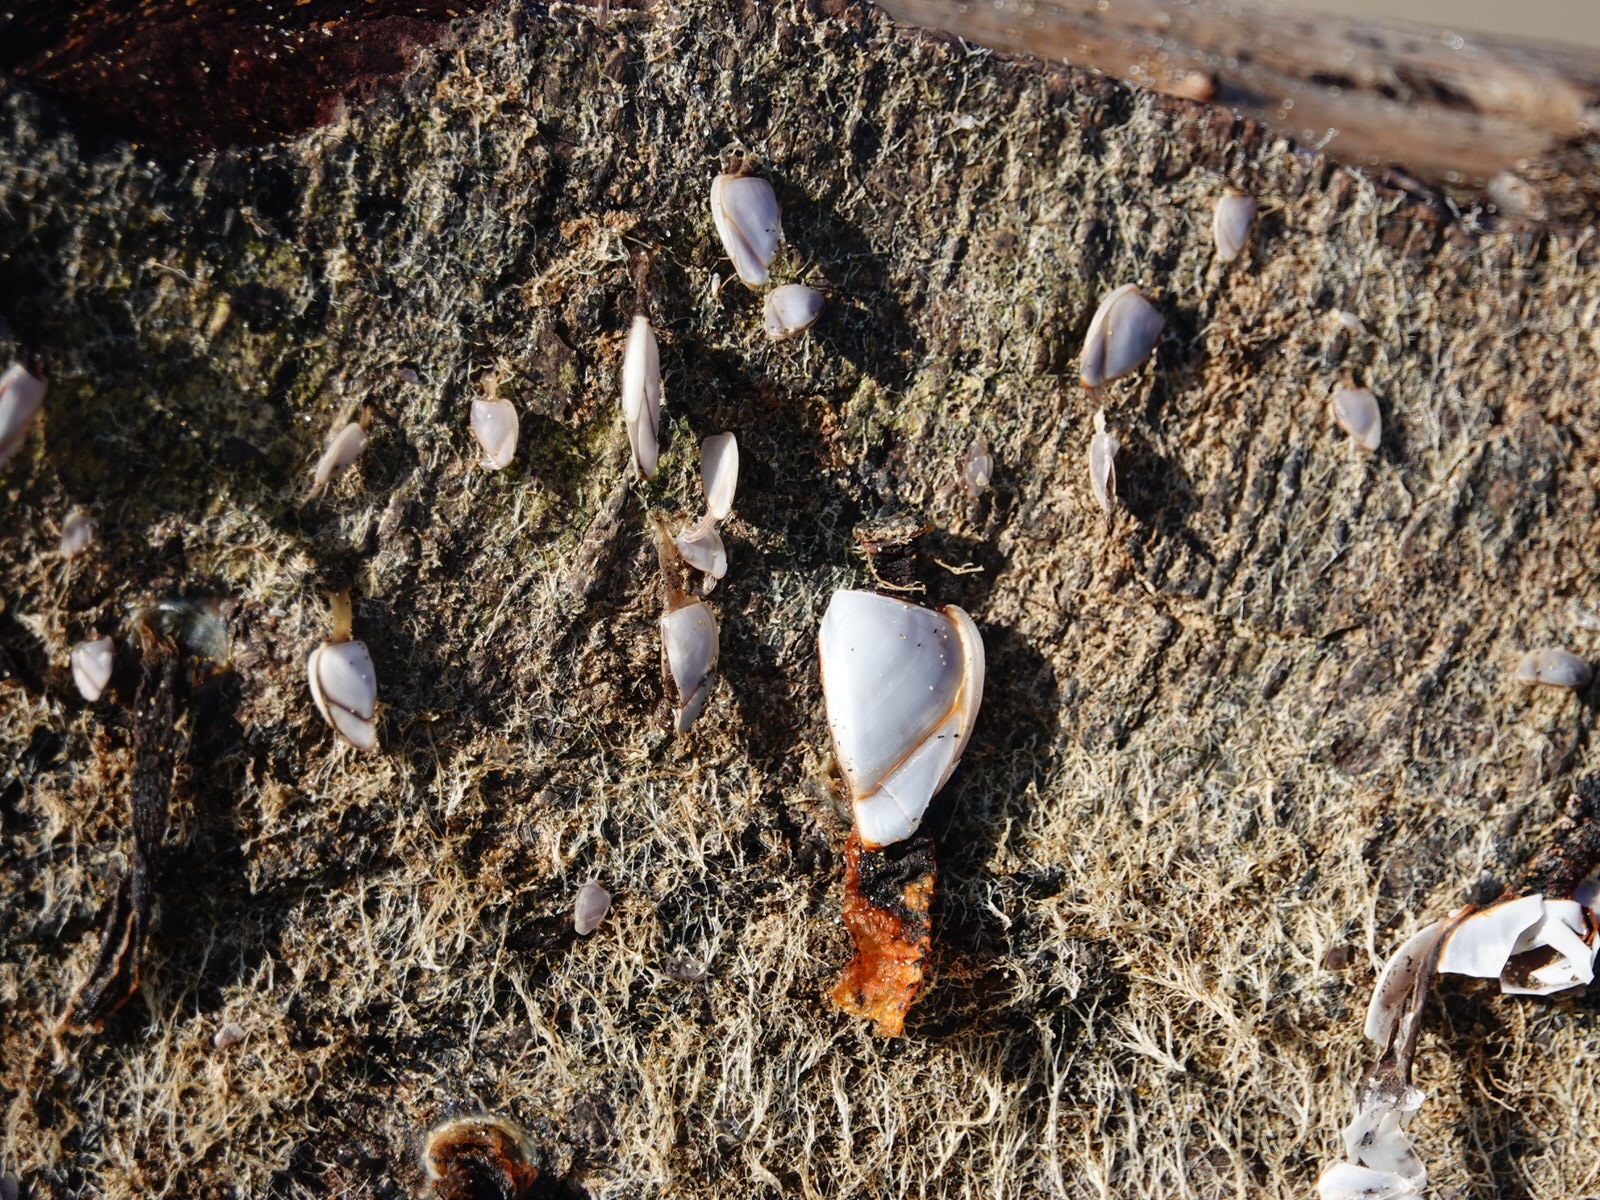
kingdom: Animalia
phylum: Arthropoda
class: Maxillopoda
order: Pedunculata
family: Lepadidae
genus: Lepas
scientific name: Lepas anatifera
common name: Common goose barnacle
